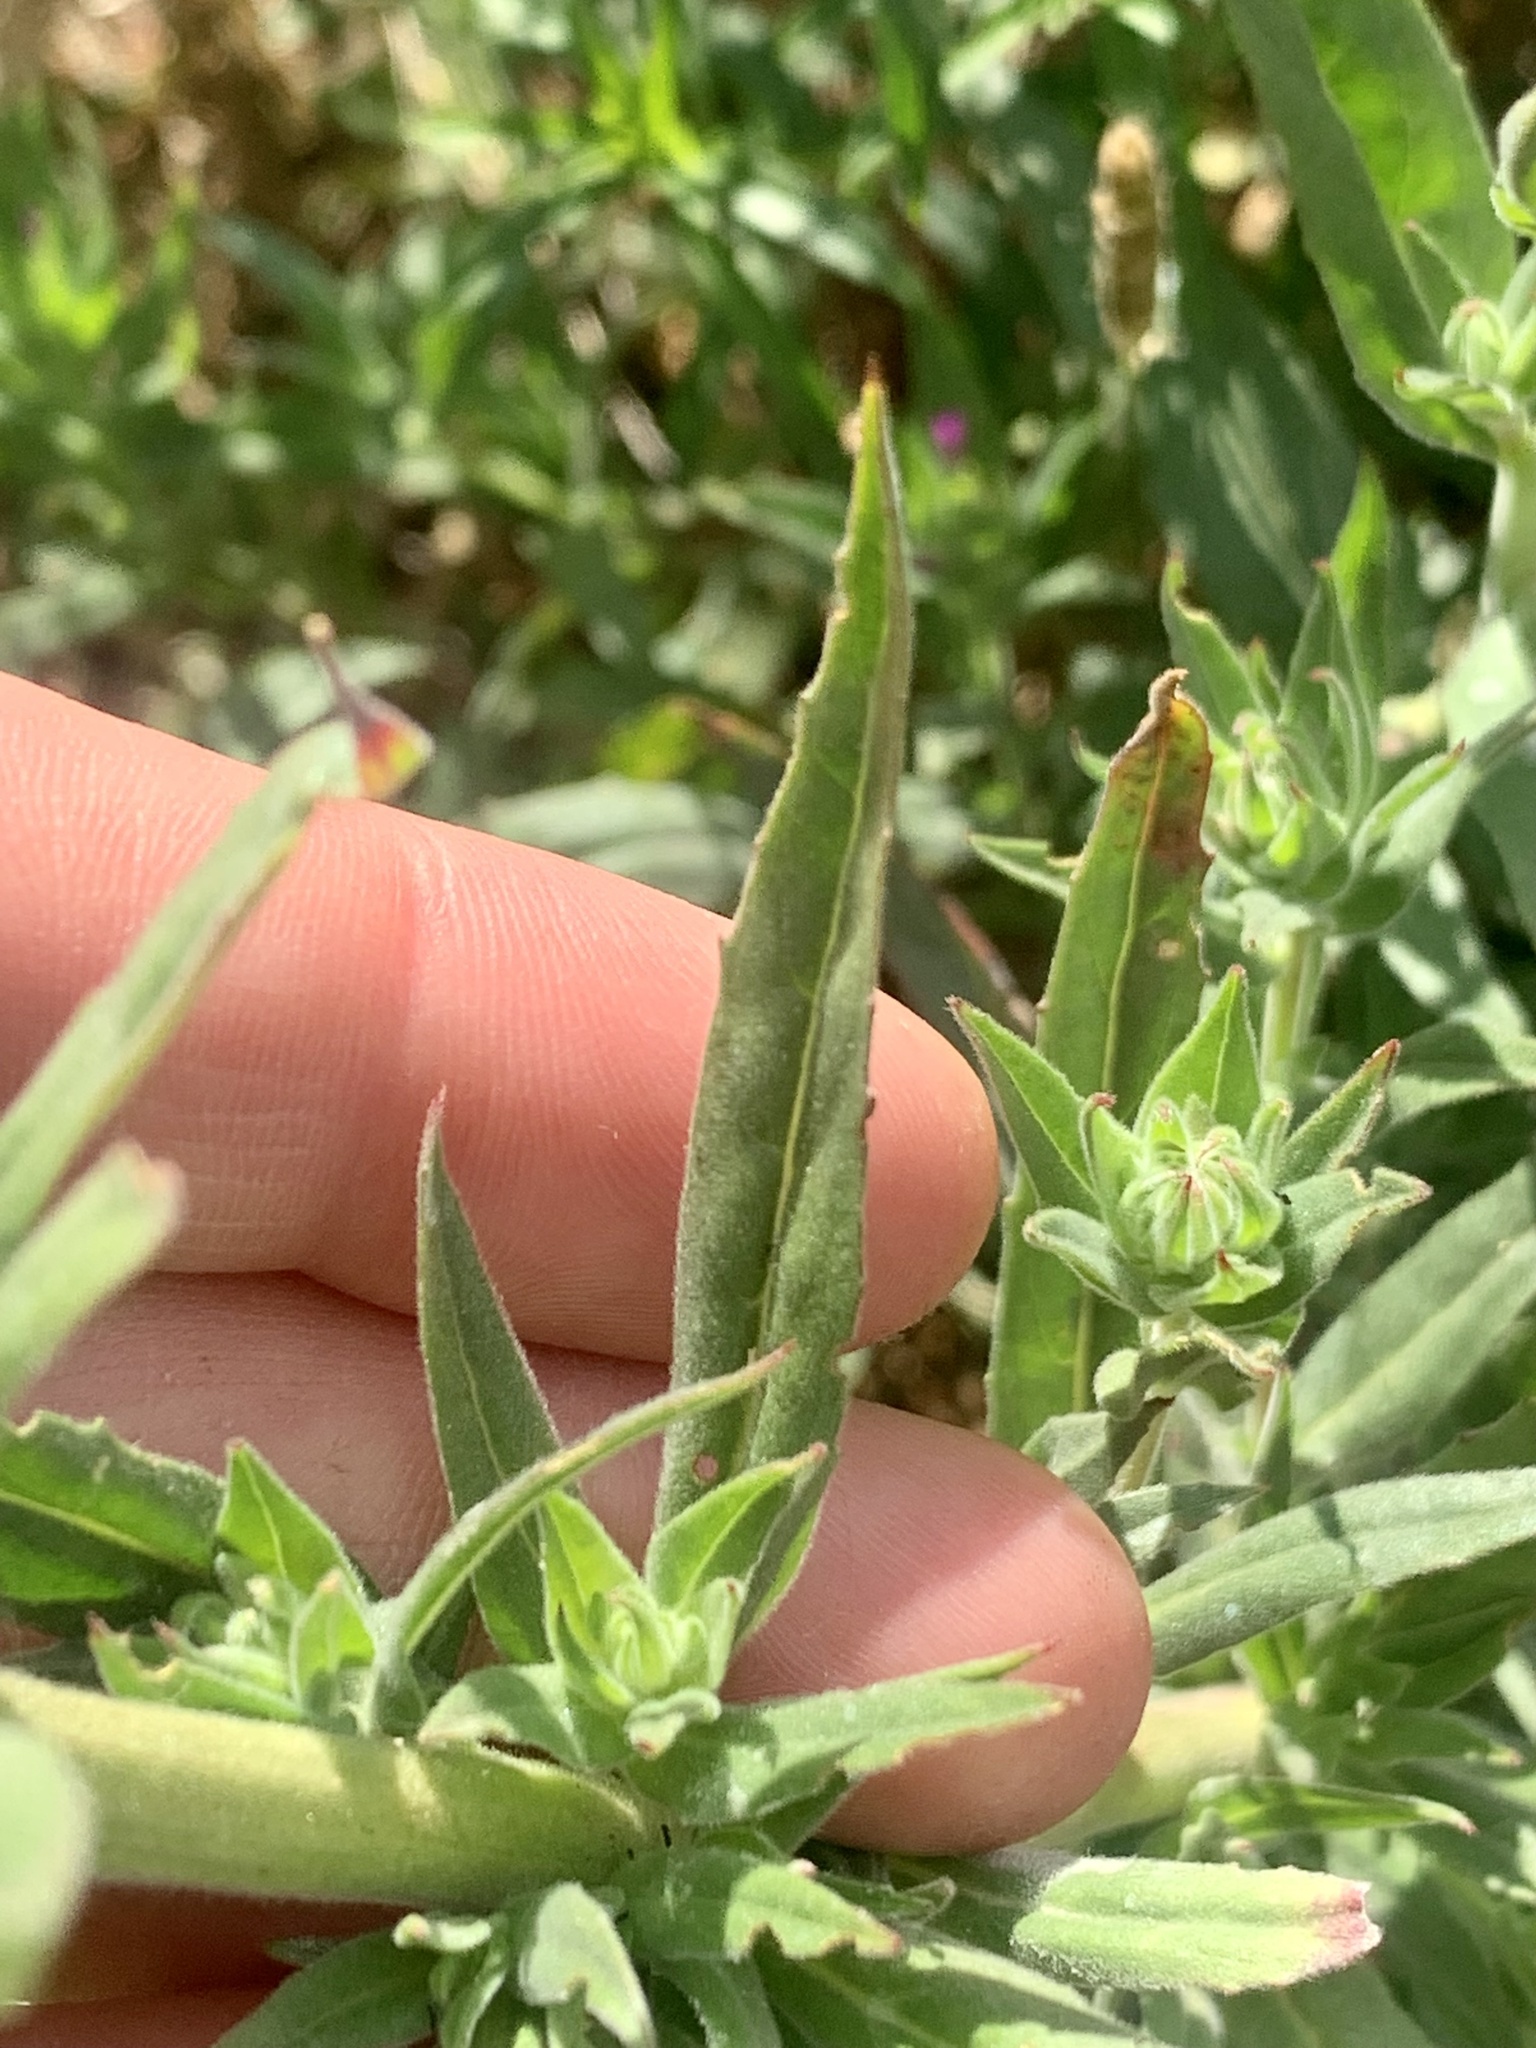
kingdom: Plantae
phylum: Tracheophyta
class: Magnoliopsida
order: Myrtales
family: Onagraceae
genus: Epilobium
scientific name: Epilobium densiflorum
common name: Dense spike-primrose
